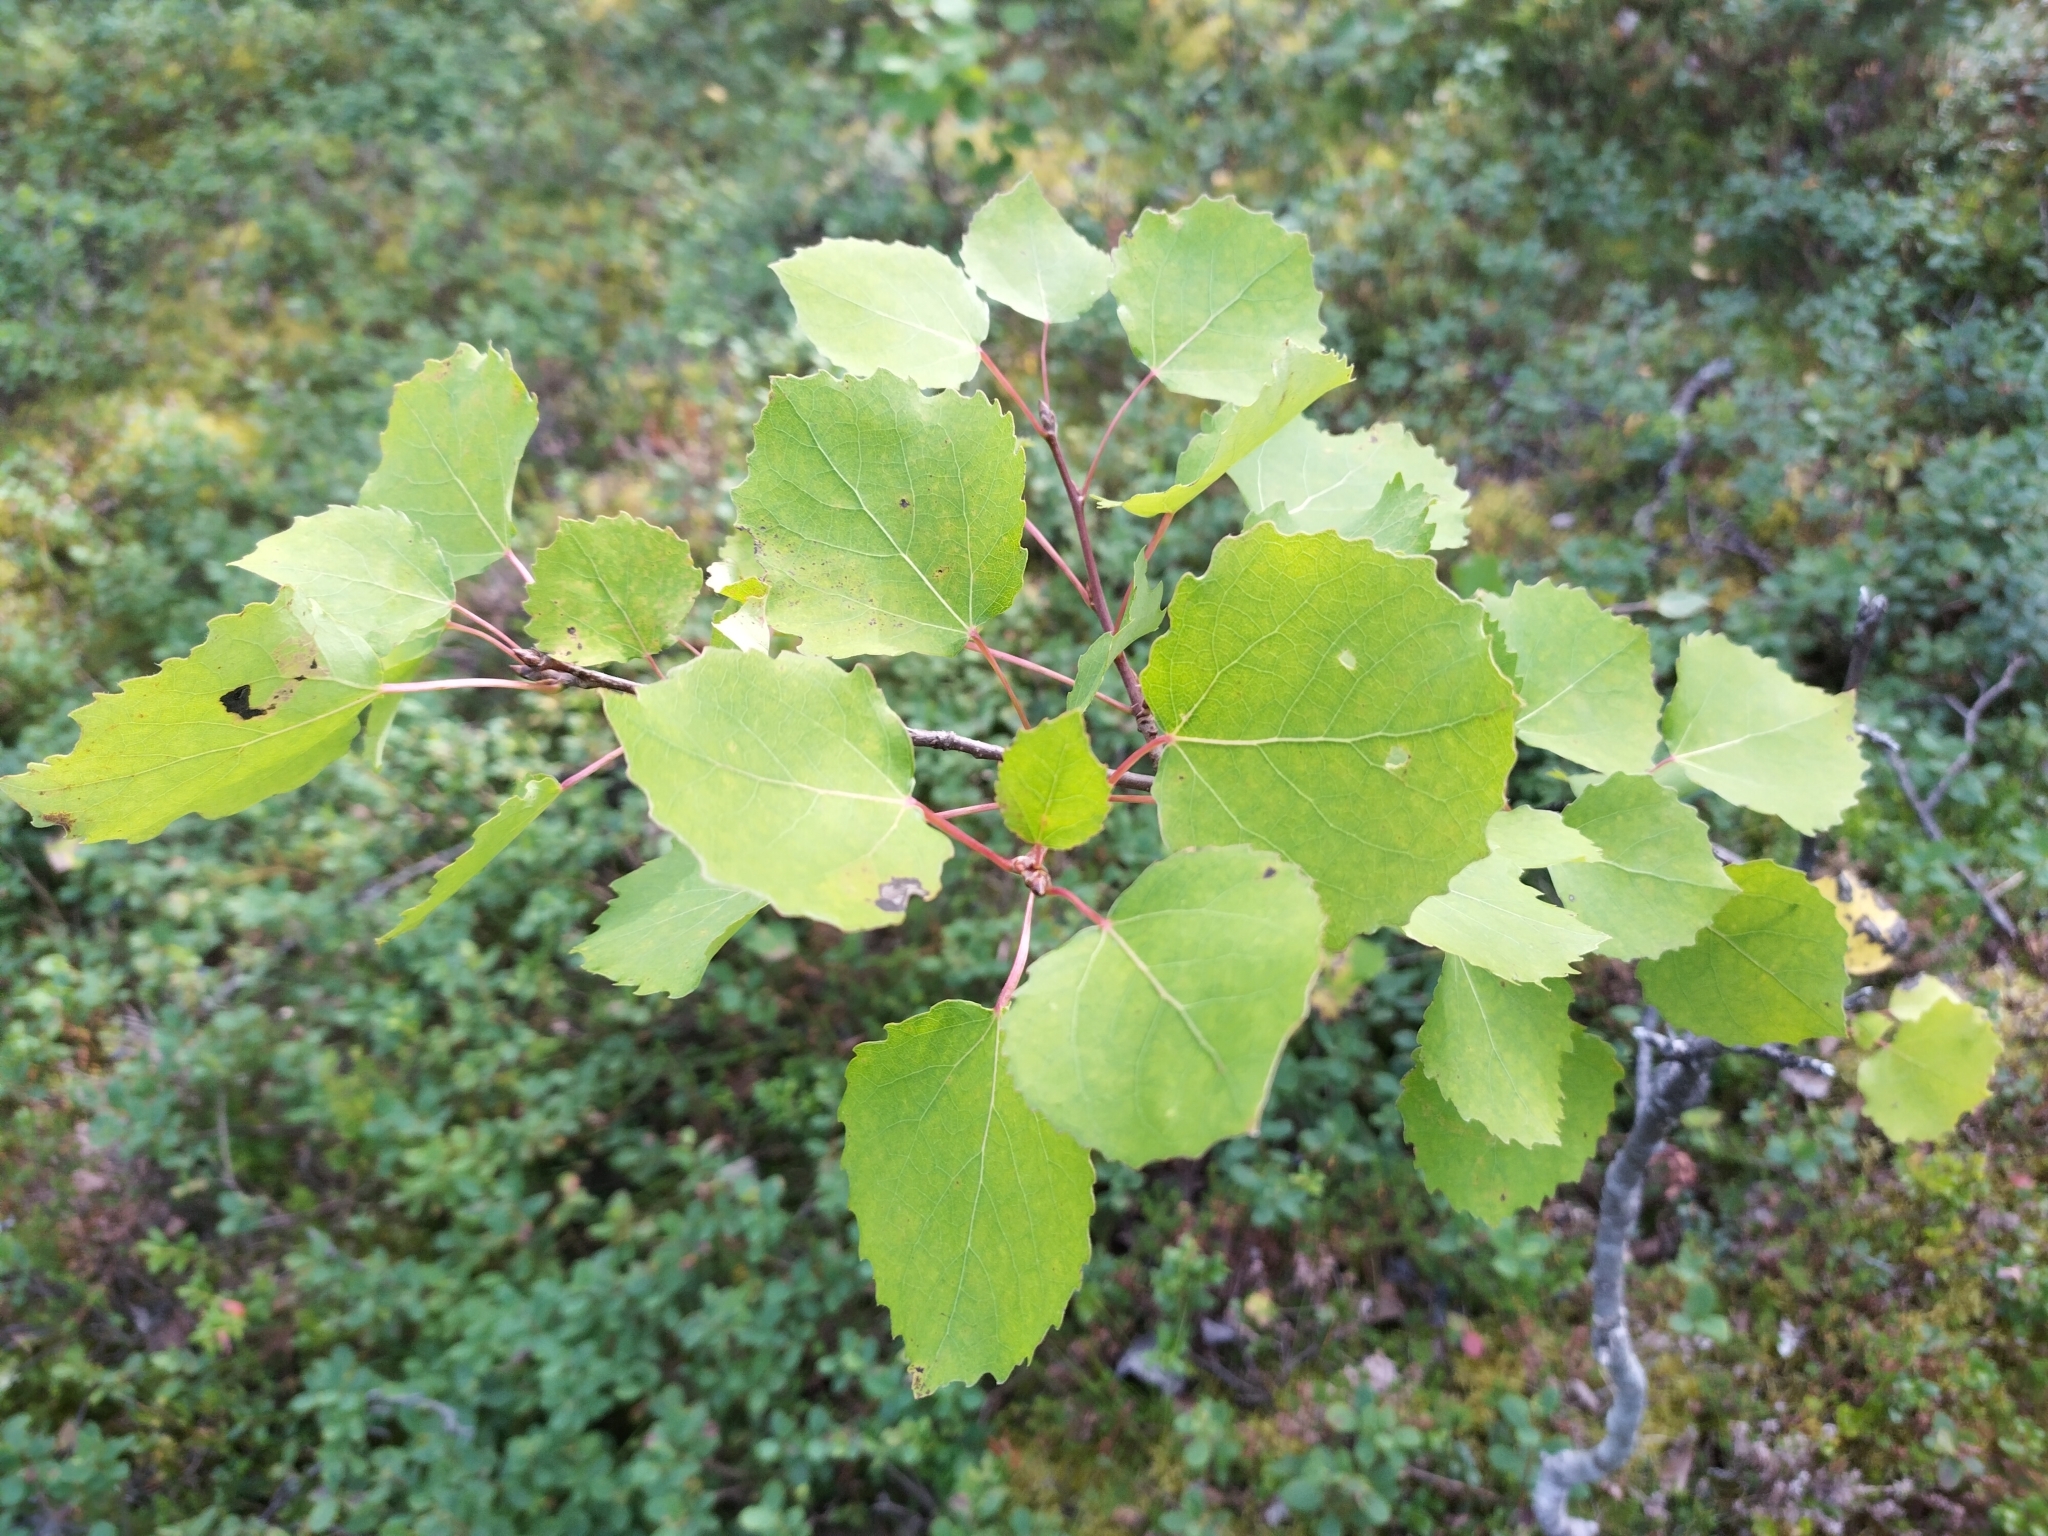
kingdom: Plantae
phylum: Tracheophyta
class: Magnoliopsida
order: Malpighiales
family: Salicaceae
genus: Populus
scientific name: Populus tremula
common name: European aspen
